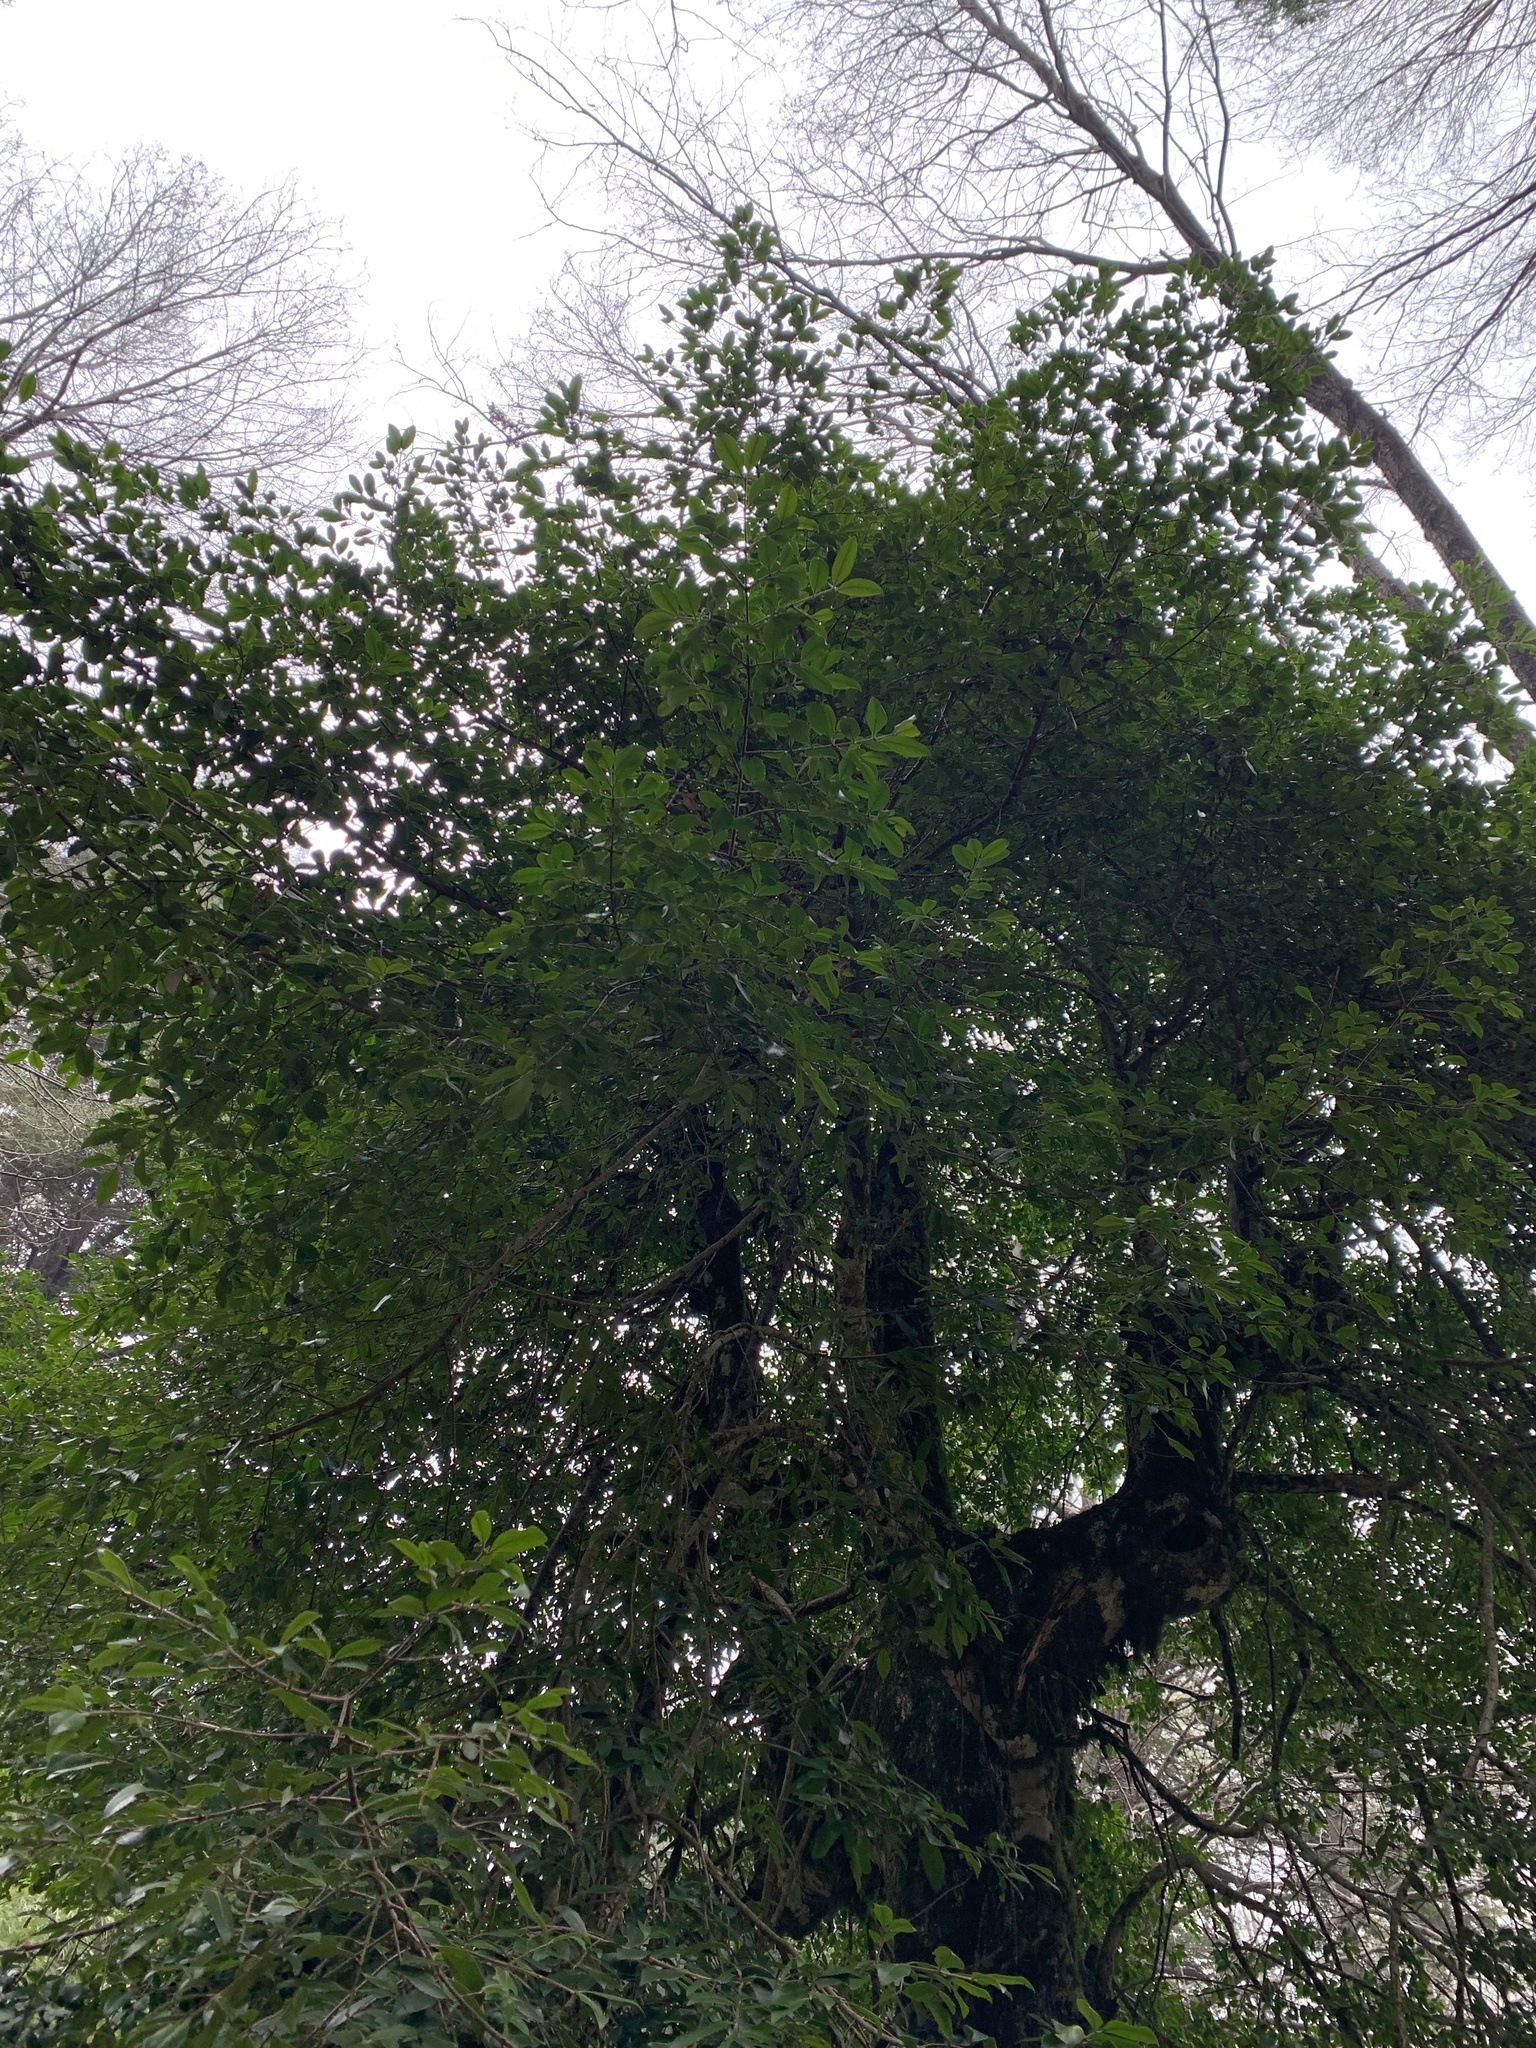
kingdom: Plantae
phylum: Tracheophyta
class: Magnoliopsida
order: Laurales
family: Atherospermataceae
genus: Laureliopsis
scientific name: Laureliopsis philippiana
